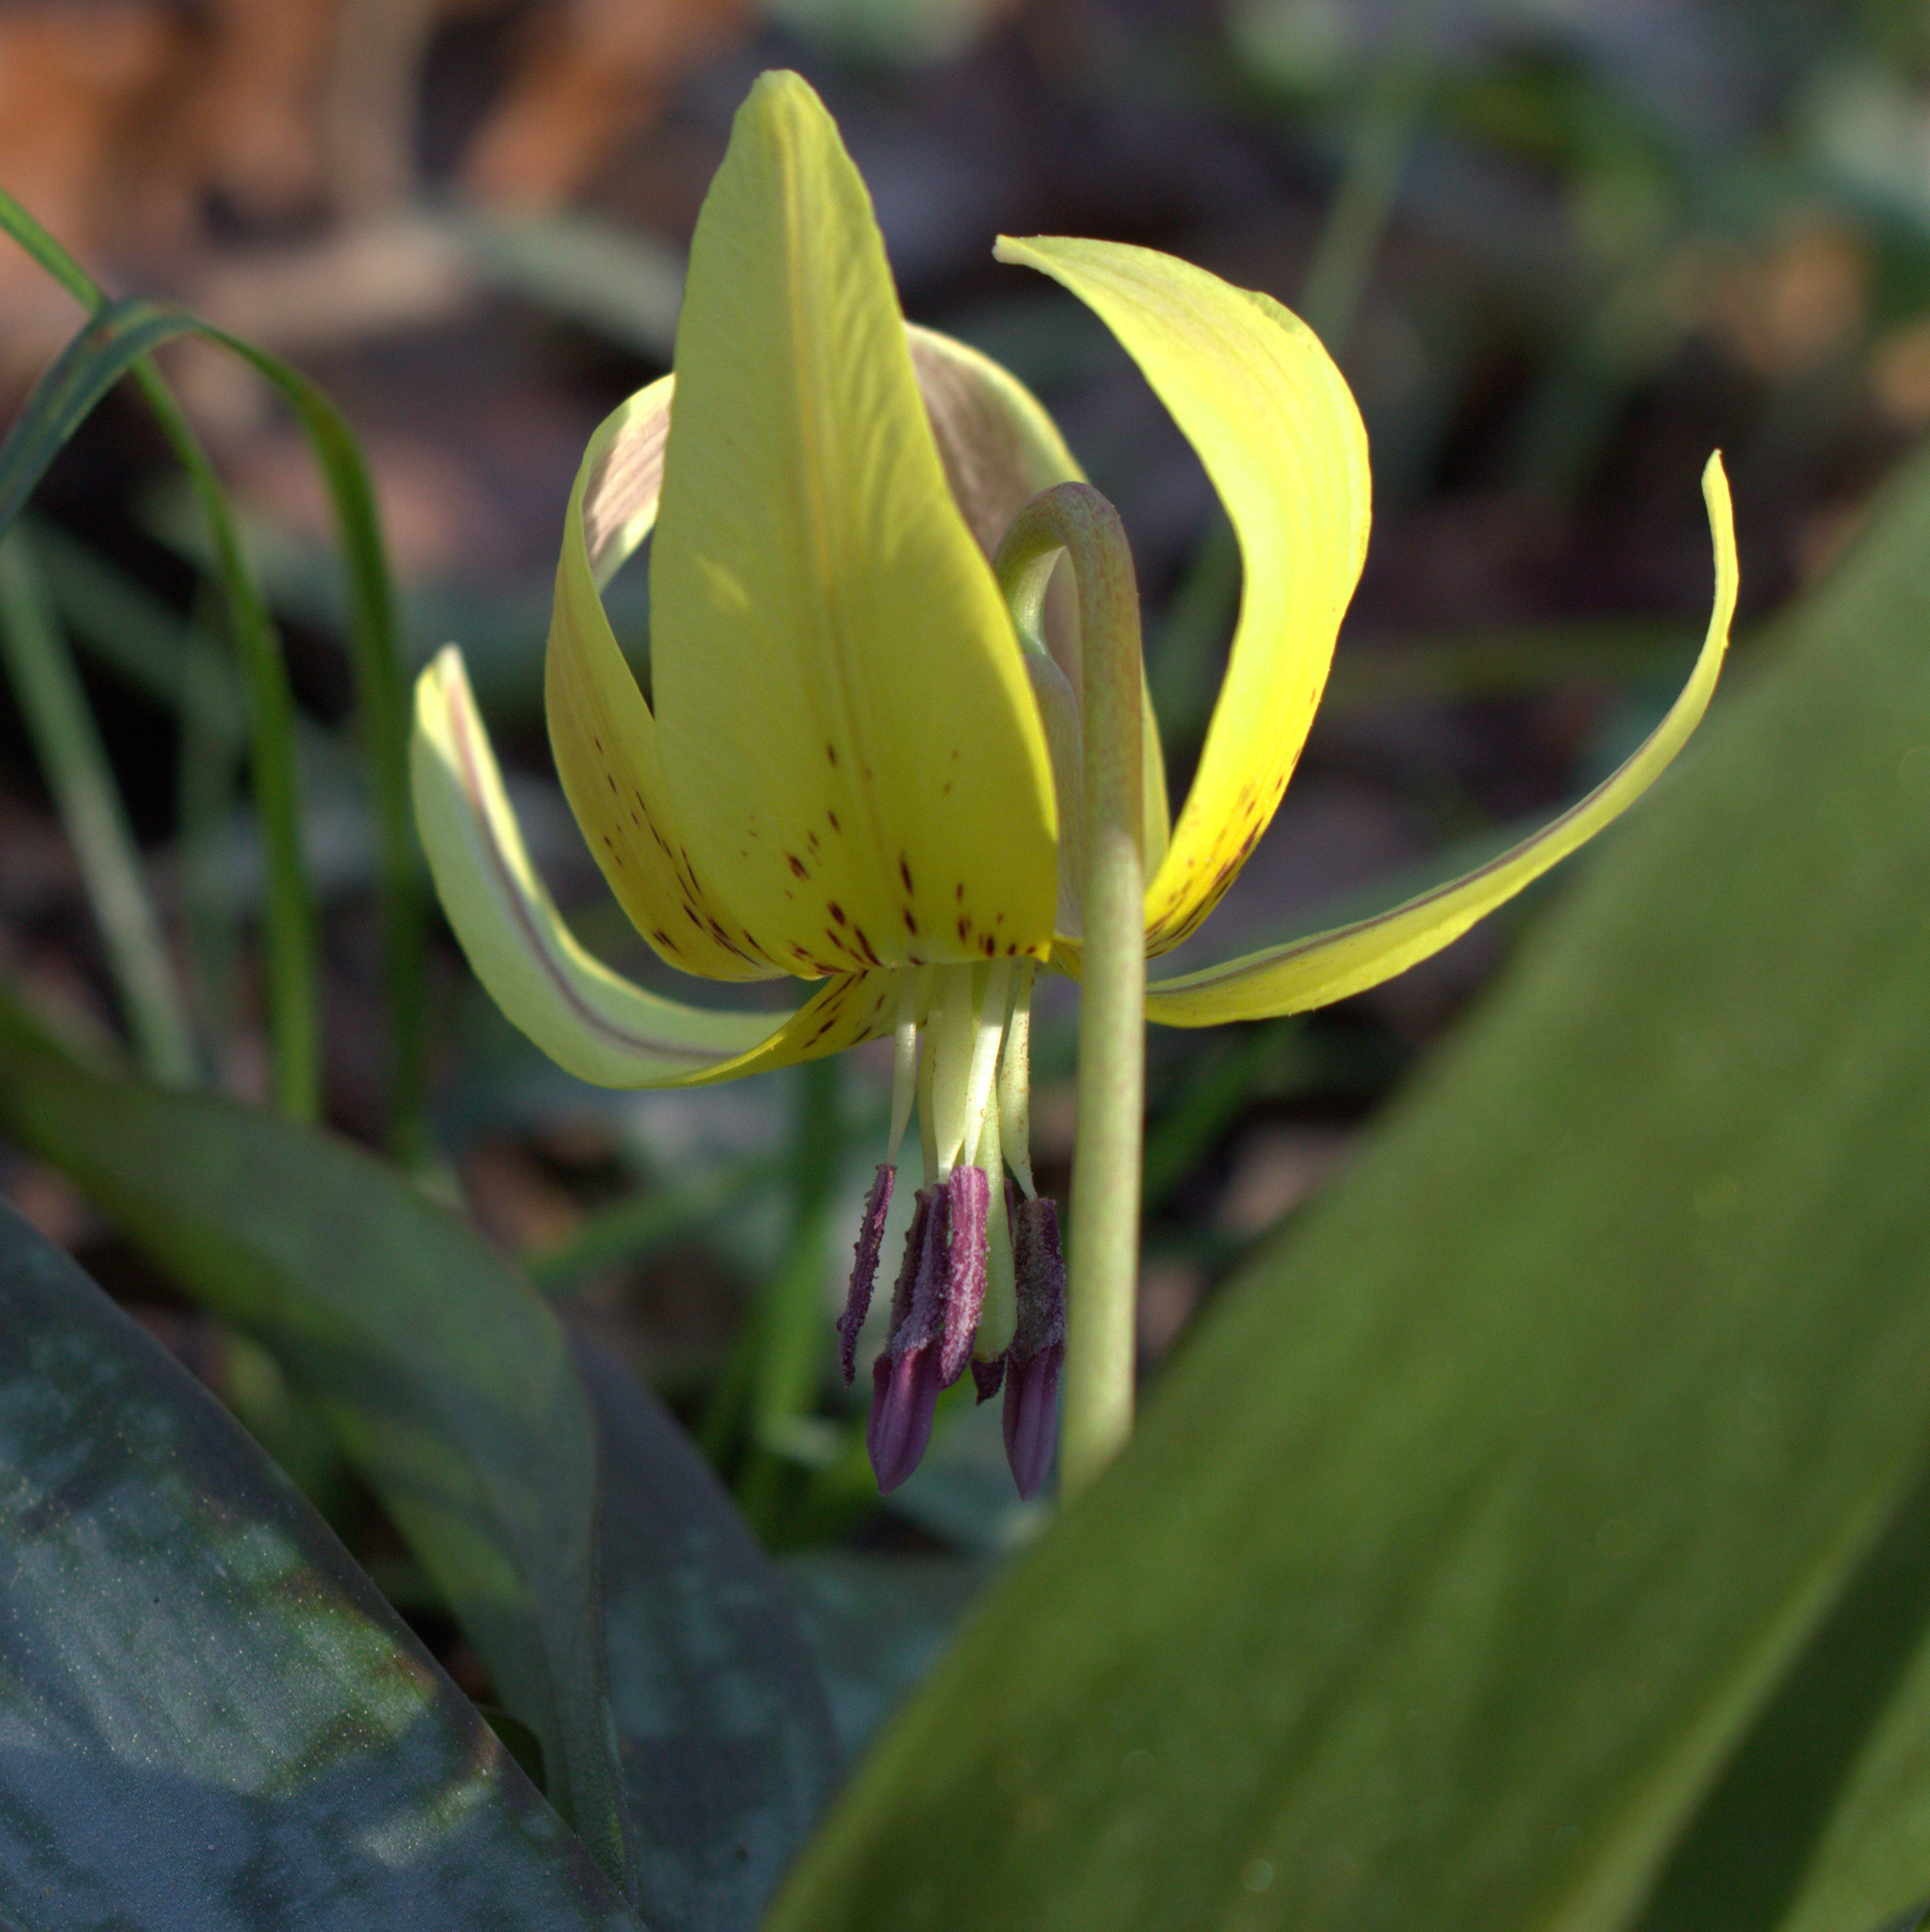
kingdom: Plantae
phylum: Tracheophyta
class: Liliopsida
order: Liliales
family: Liliaceae
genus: Erythronium
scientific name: Erythronium umbilicatum
